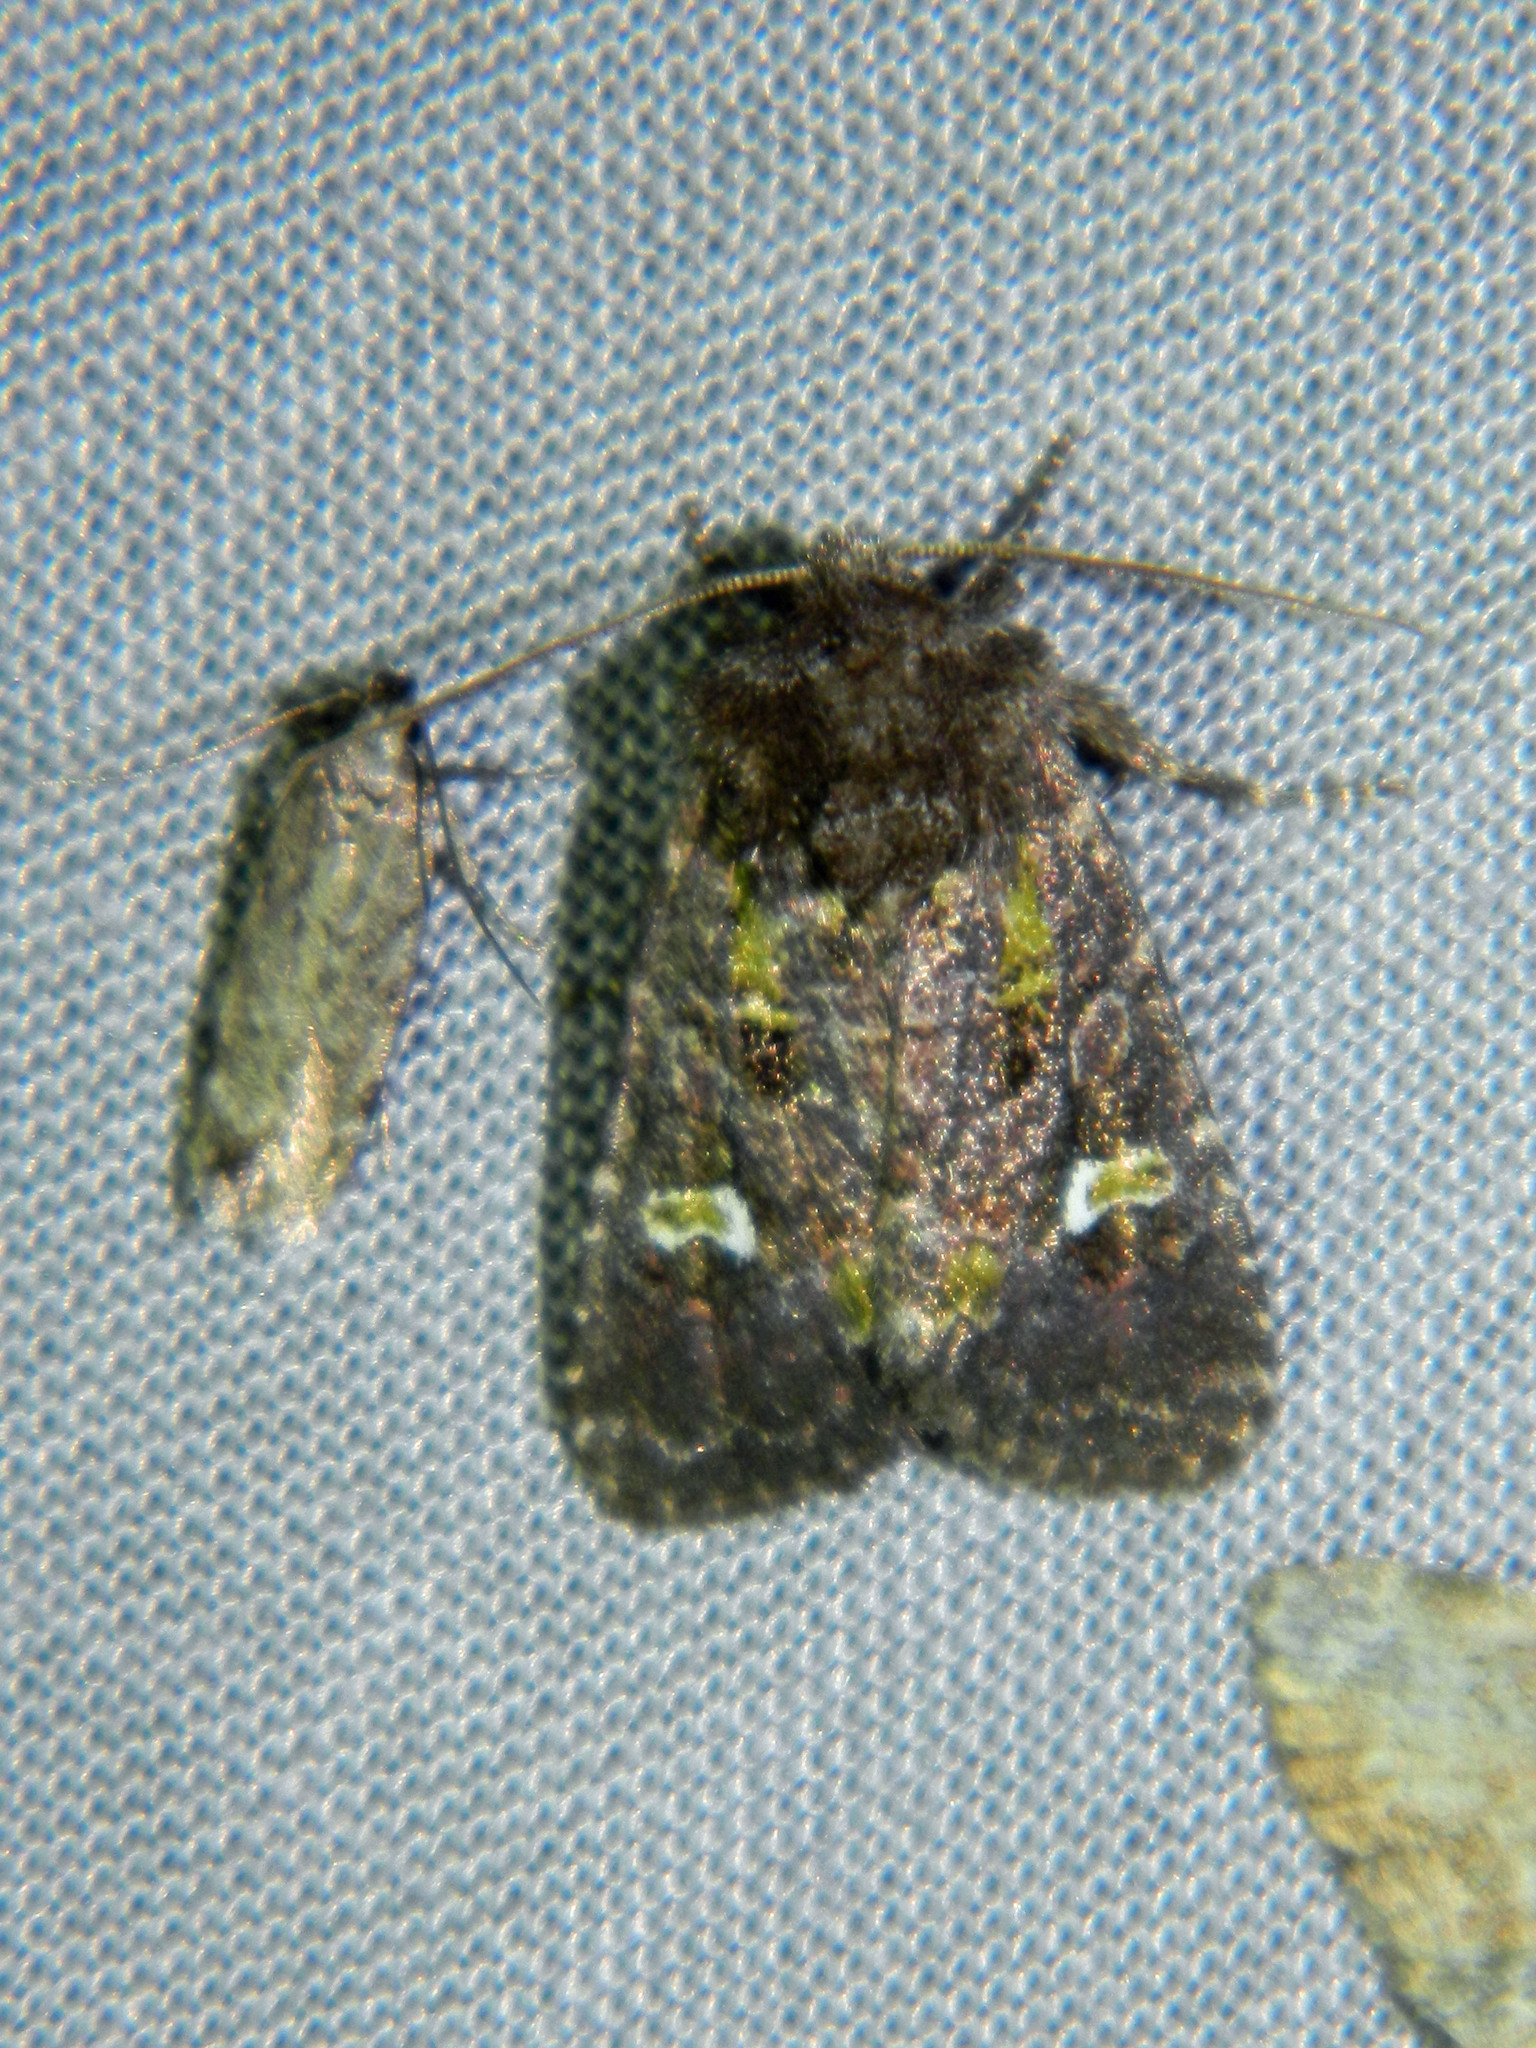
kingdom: Animalia
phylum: Arthropoda
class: Insecta
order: Lepidoptera
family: Noctuidae
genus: Lacinipolia
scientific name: Lacinipolia renigera
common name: Kidney-spotted minor
